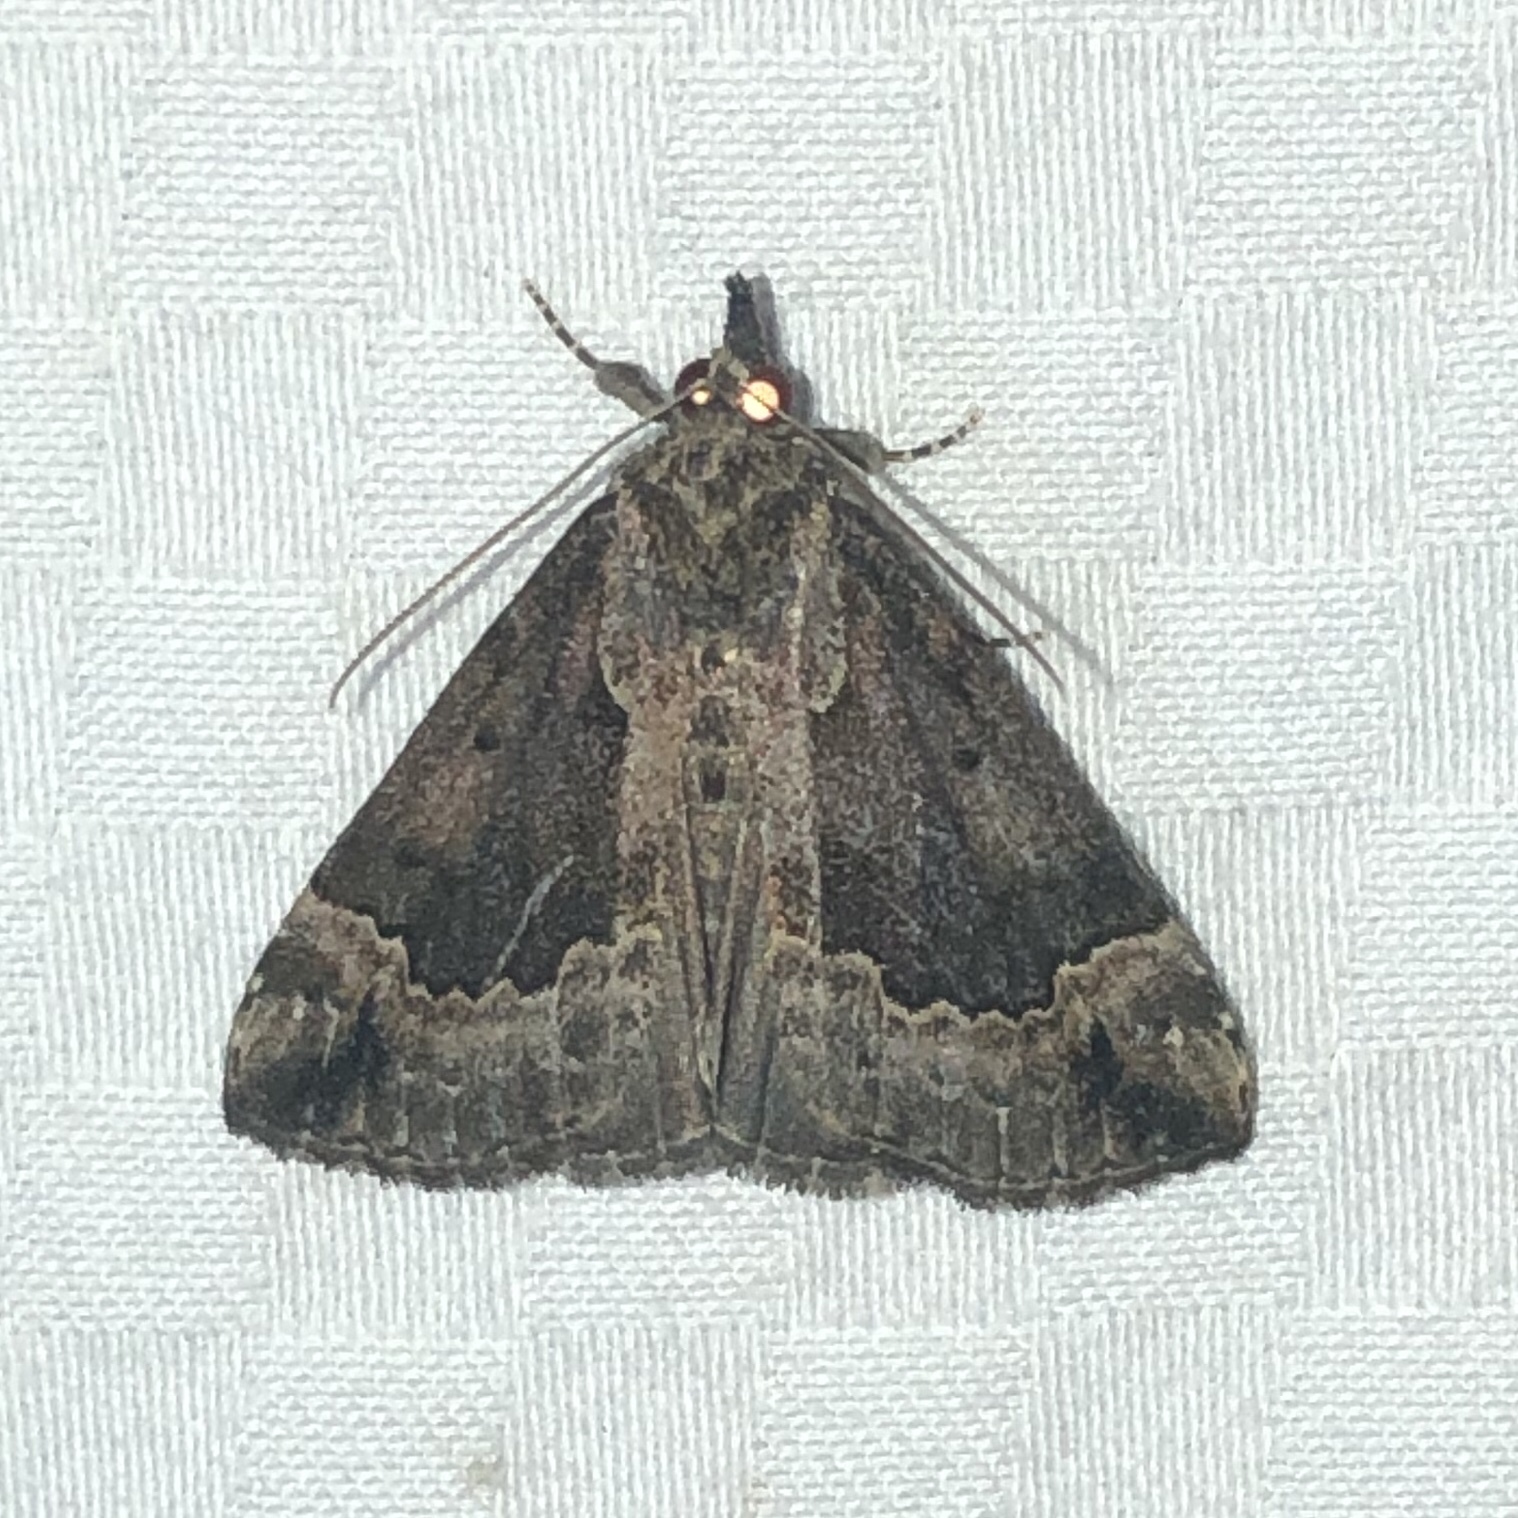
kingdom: Animalia
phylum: Arthropoda
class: Insecta
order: Lepidoptera
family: Erebidae
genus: Hypena
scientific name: Hypena baltimoralis
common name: Baltimore snout
